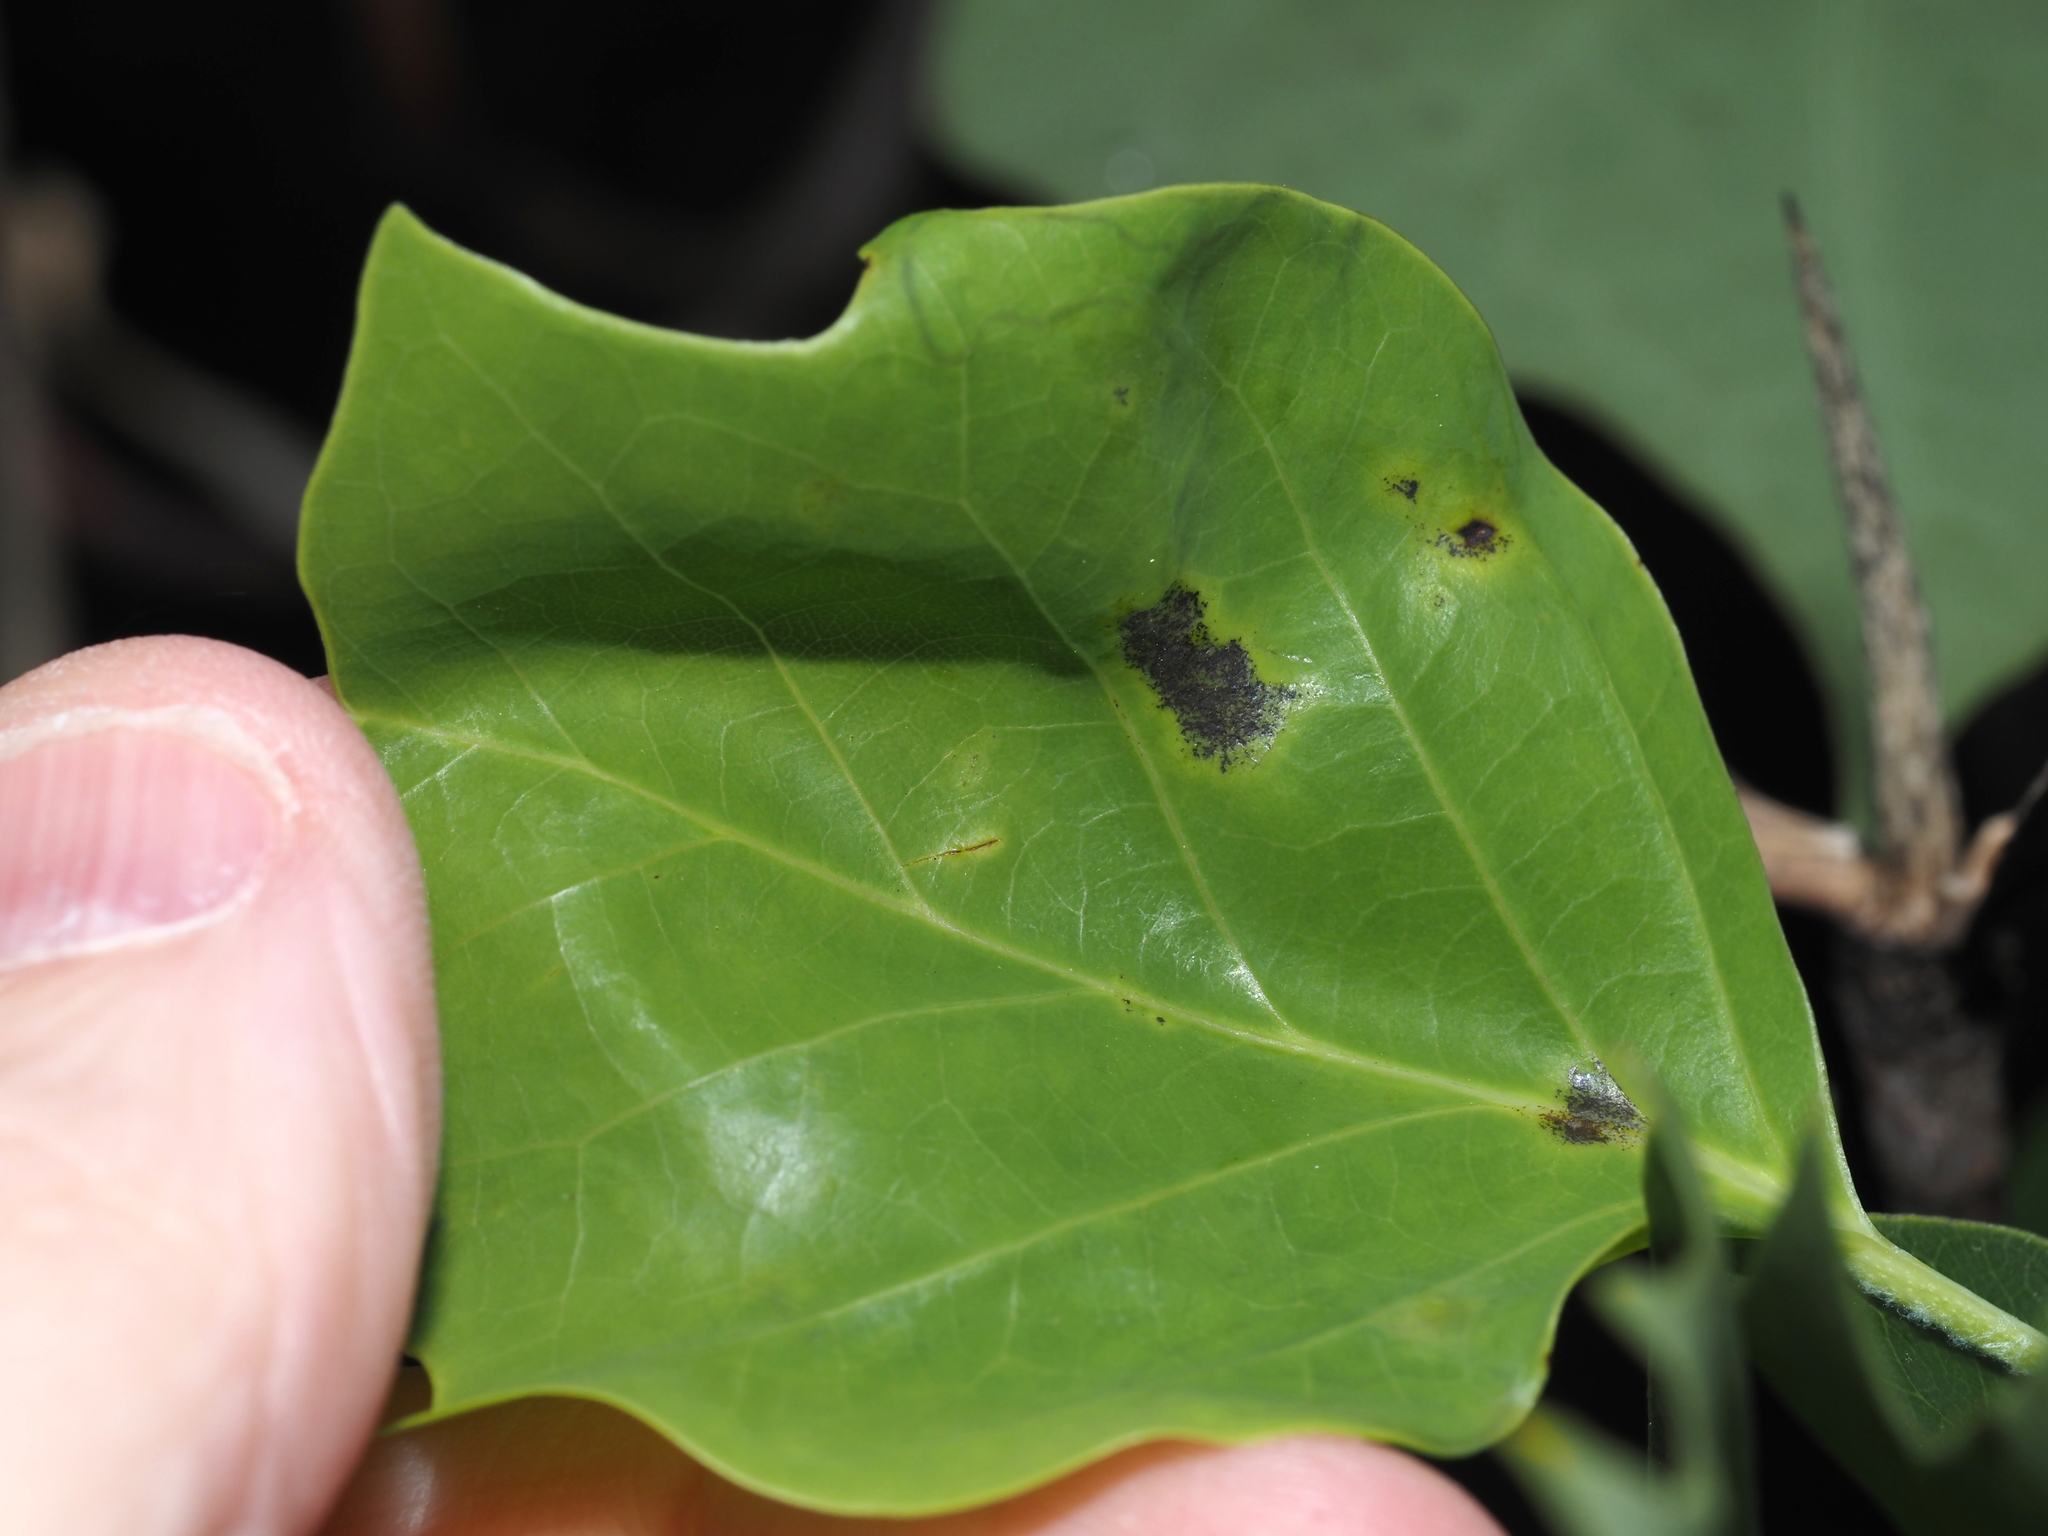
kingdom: Animalia
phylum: Arthropoda
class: Insecta
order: Lepidoptera
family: Gracillariidae
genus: Phyllocnistis
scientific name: Phyllocnistis liriodendronella
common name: Tulip tree leaf miner
